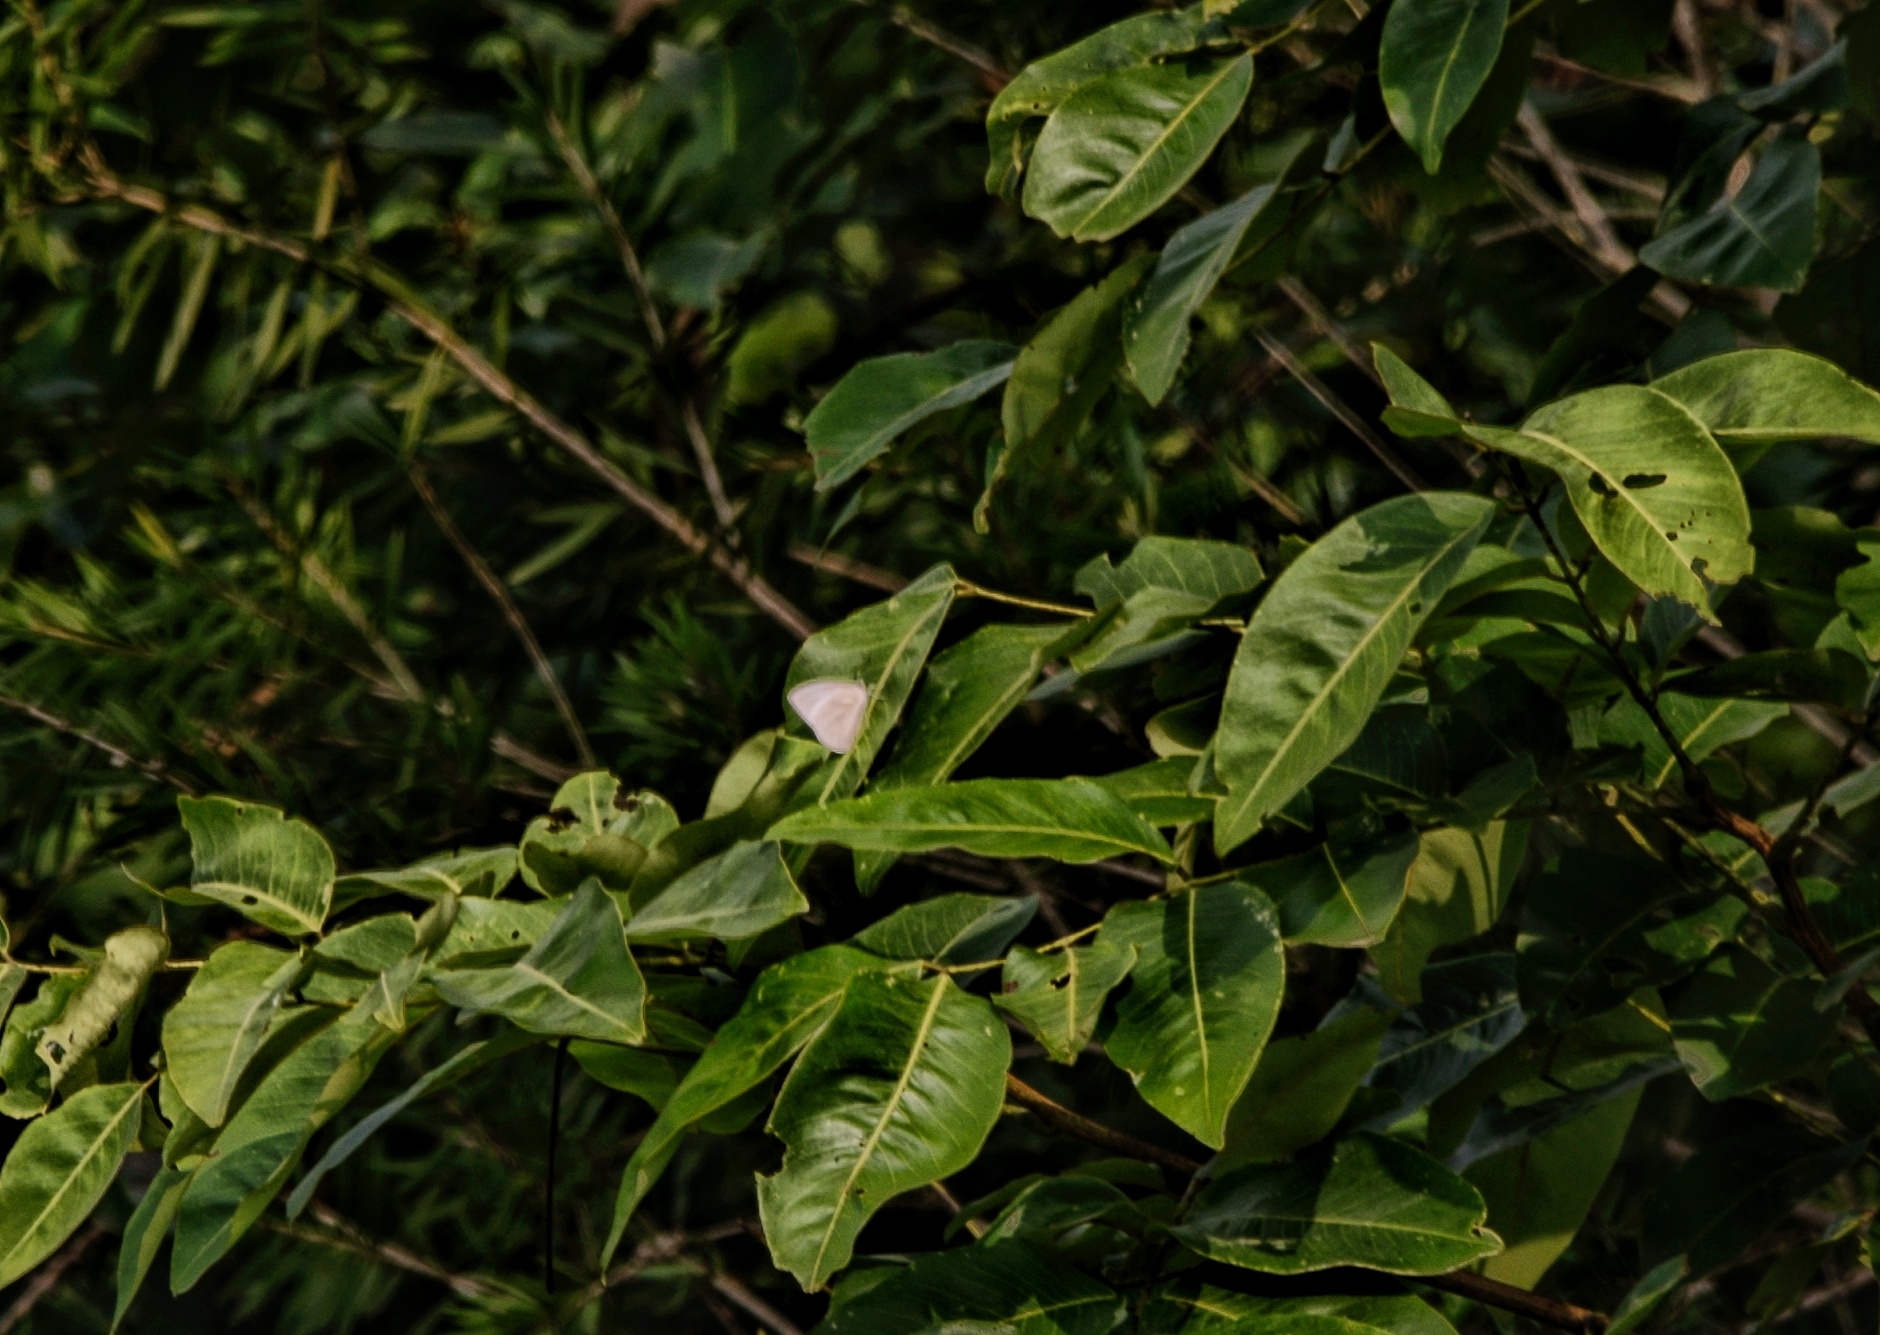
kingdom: Animalia
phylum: Arthropoda
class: Insecta
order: Lepidoptera
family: Pieridae
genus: Catopsilia
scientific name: Catopsilia pomona
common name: Common emigrant
